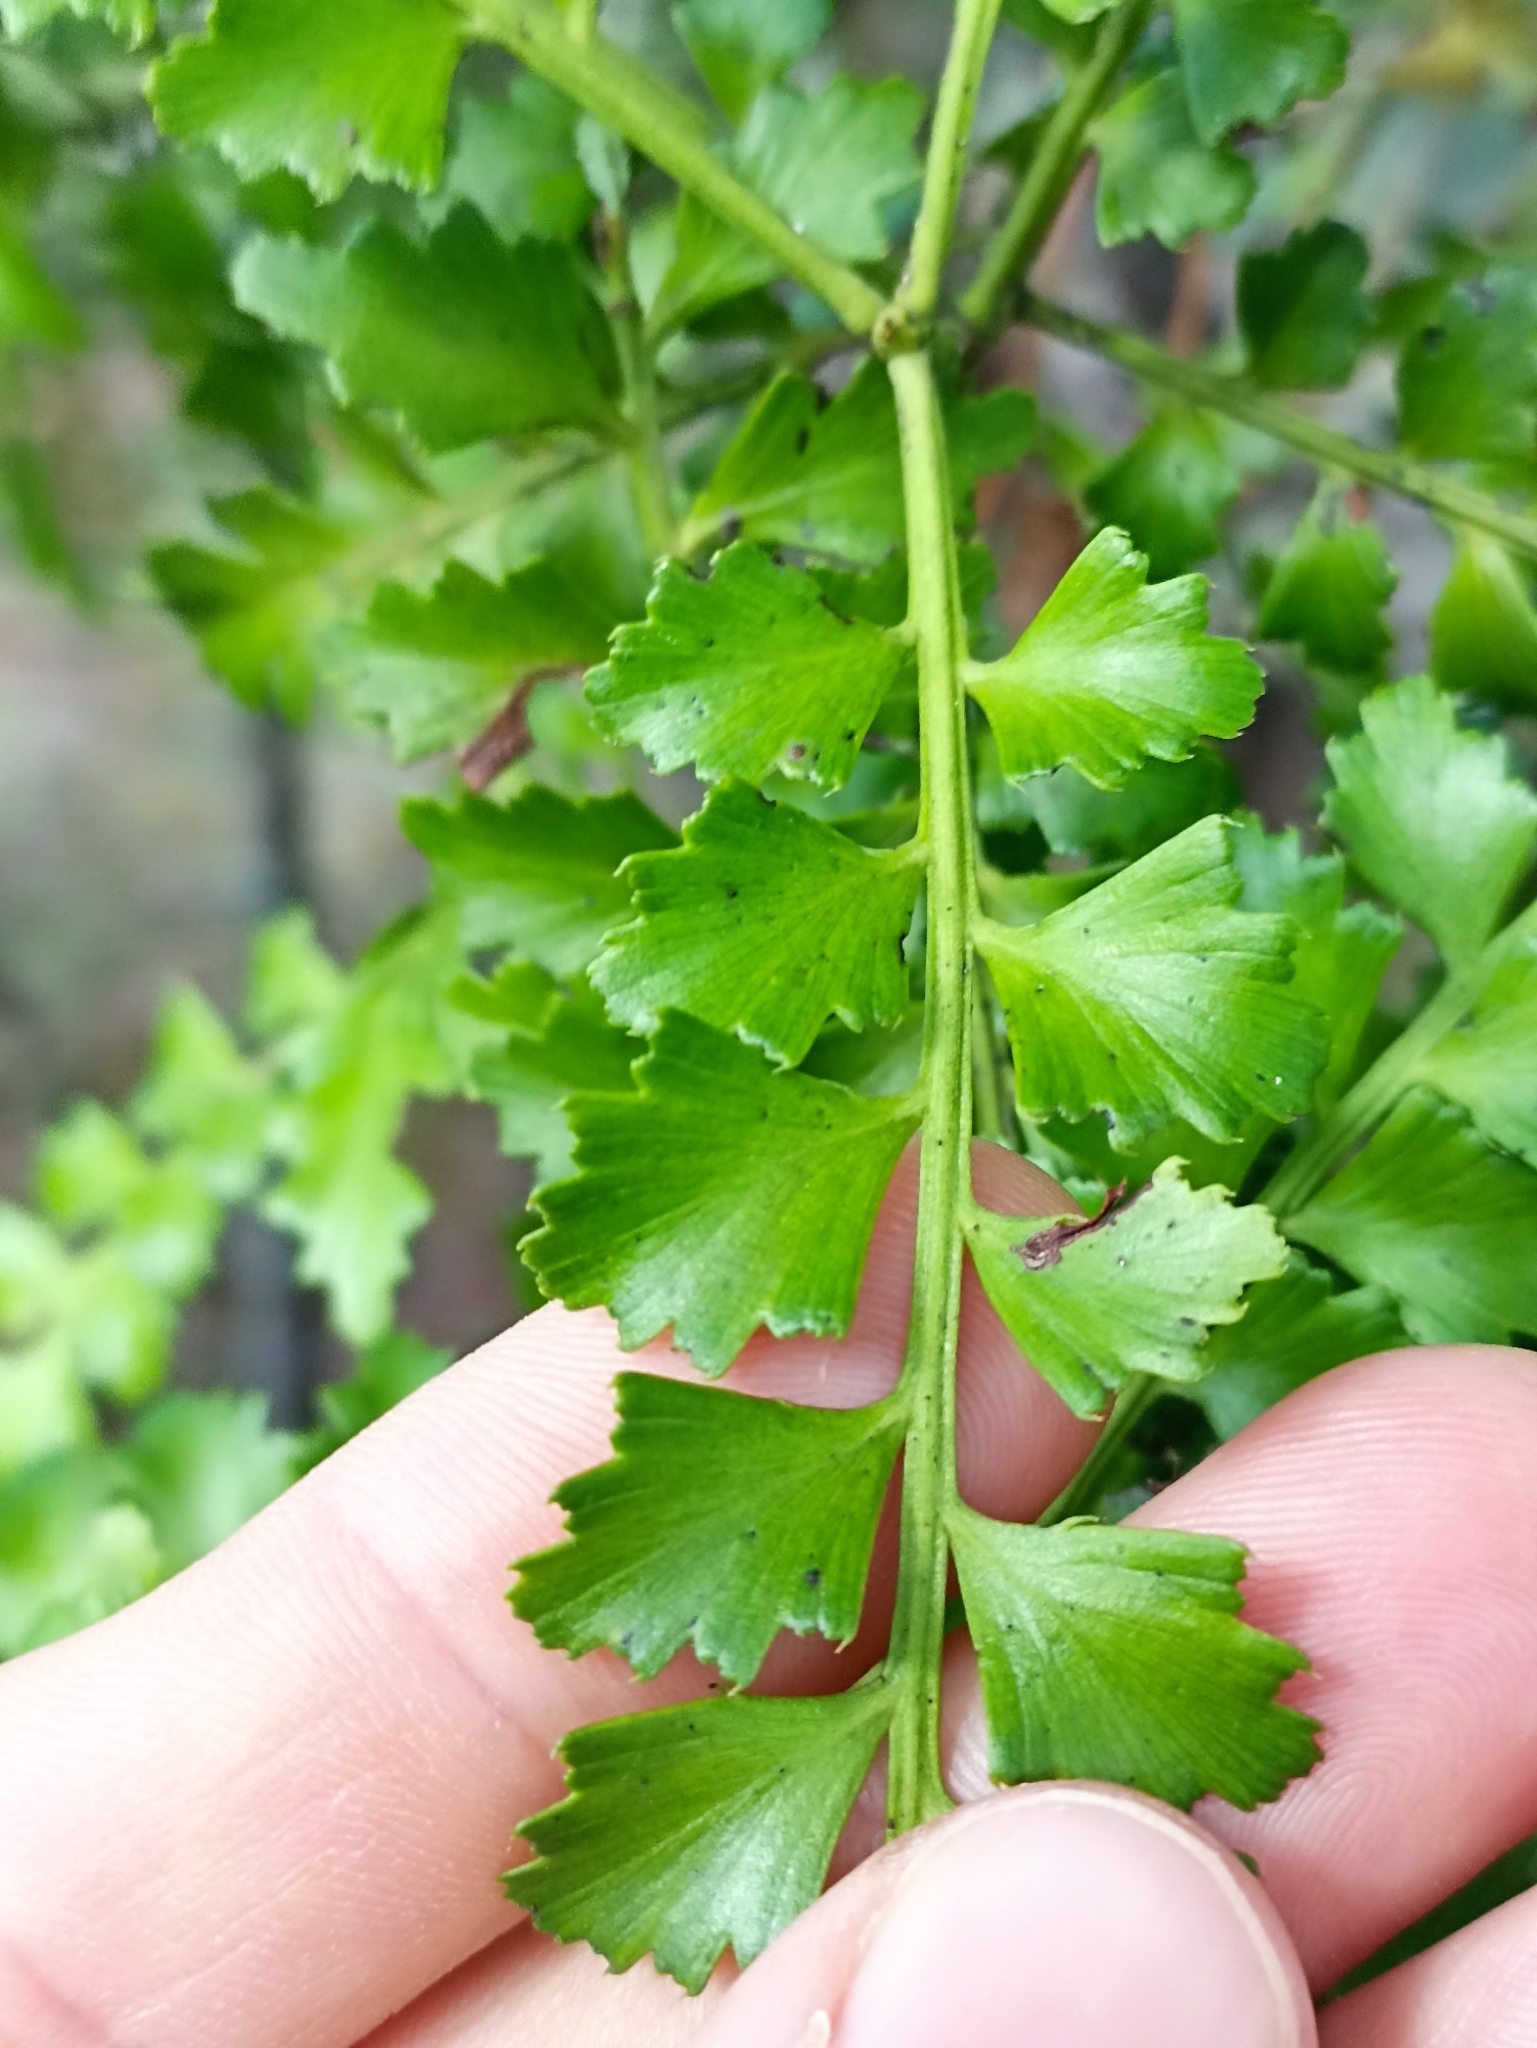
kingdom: Plantae
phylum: Tracheophyta
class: Pinopsida
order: Pinales
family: Phyllocladaceae
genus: Phyllocladus
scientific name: Phyllocladus trichomanoides
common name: Celery pine
